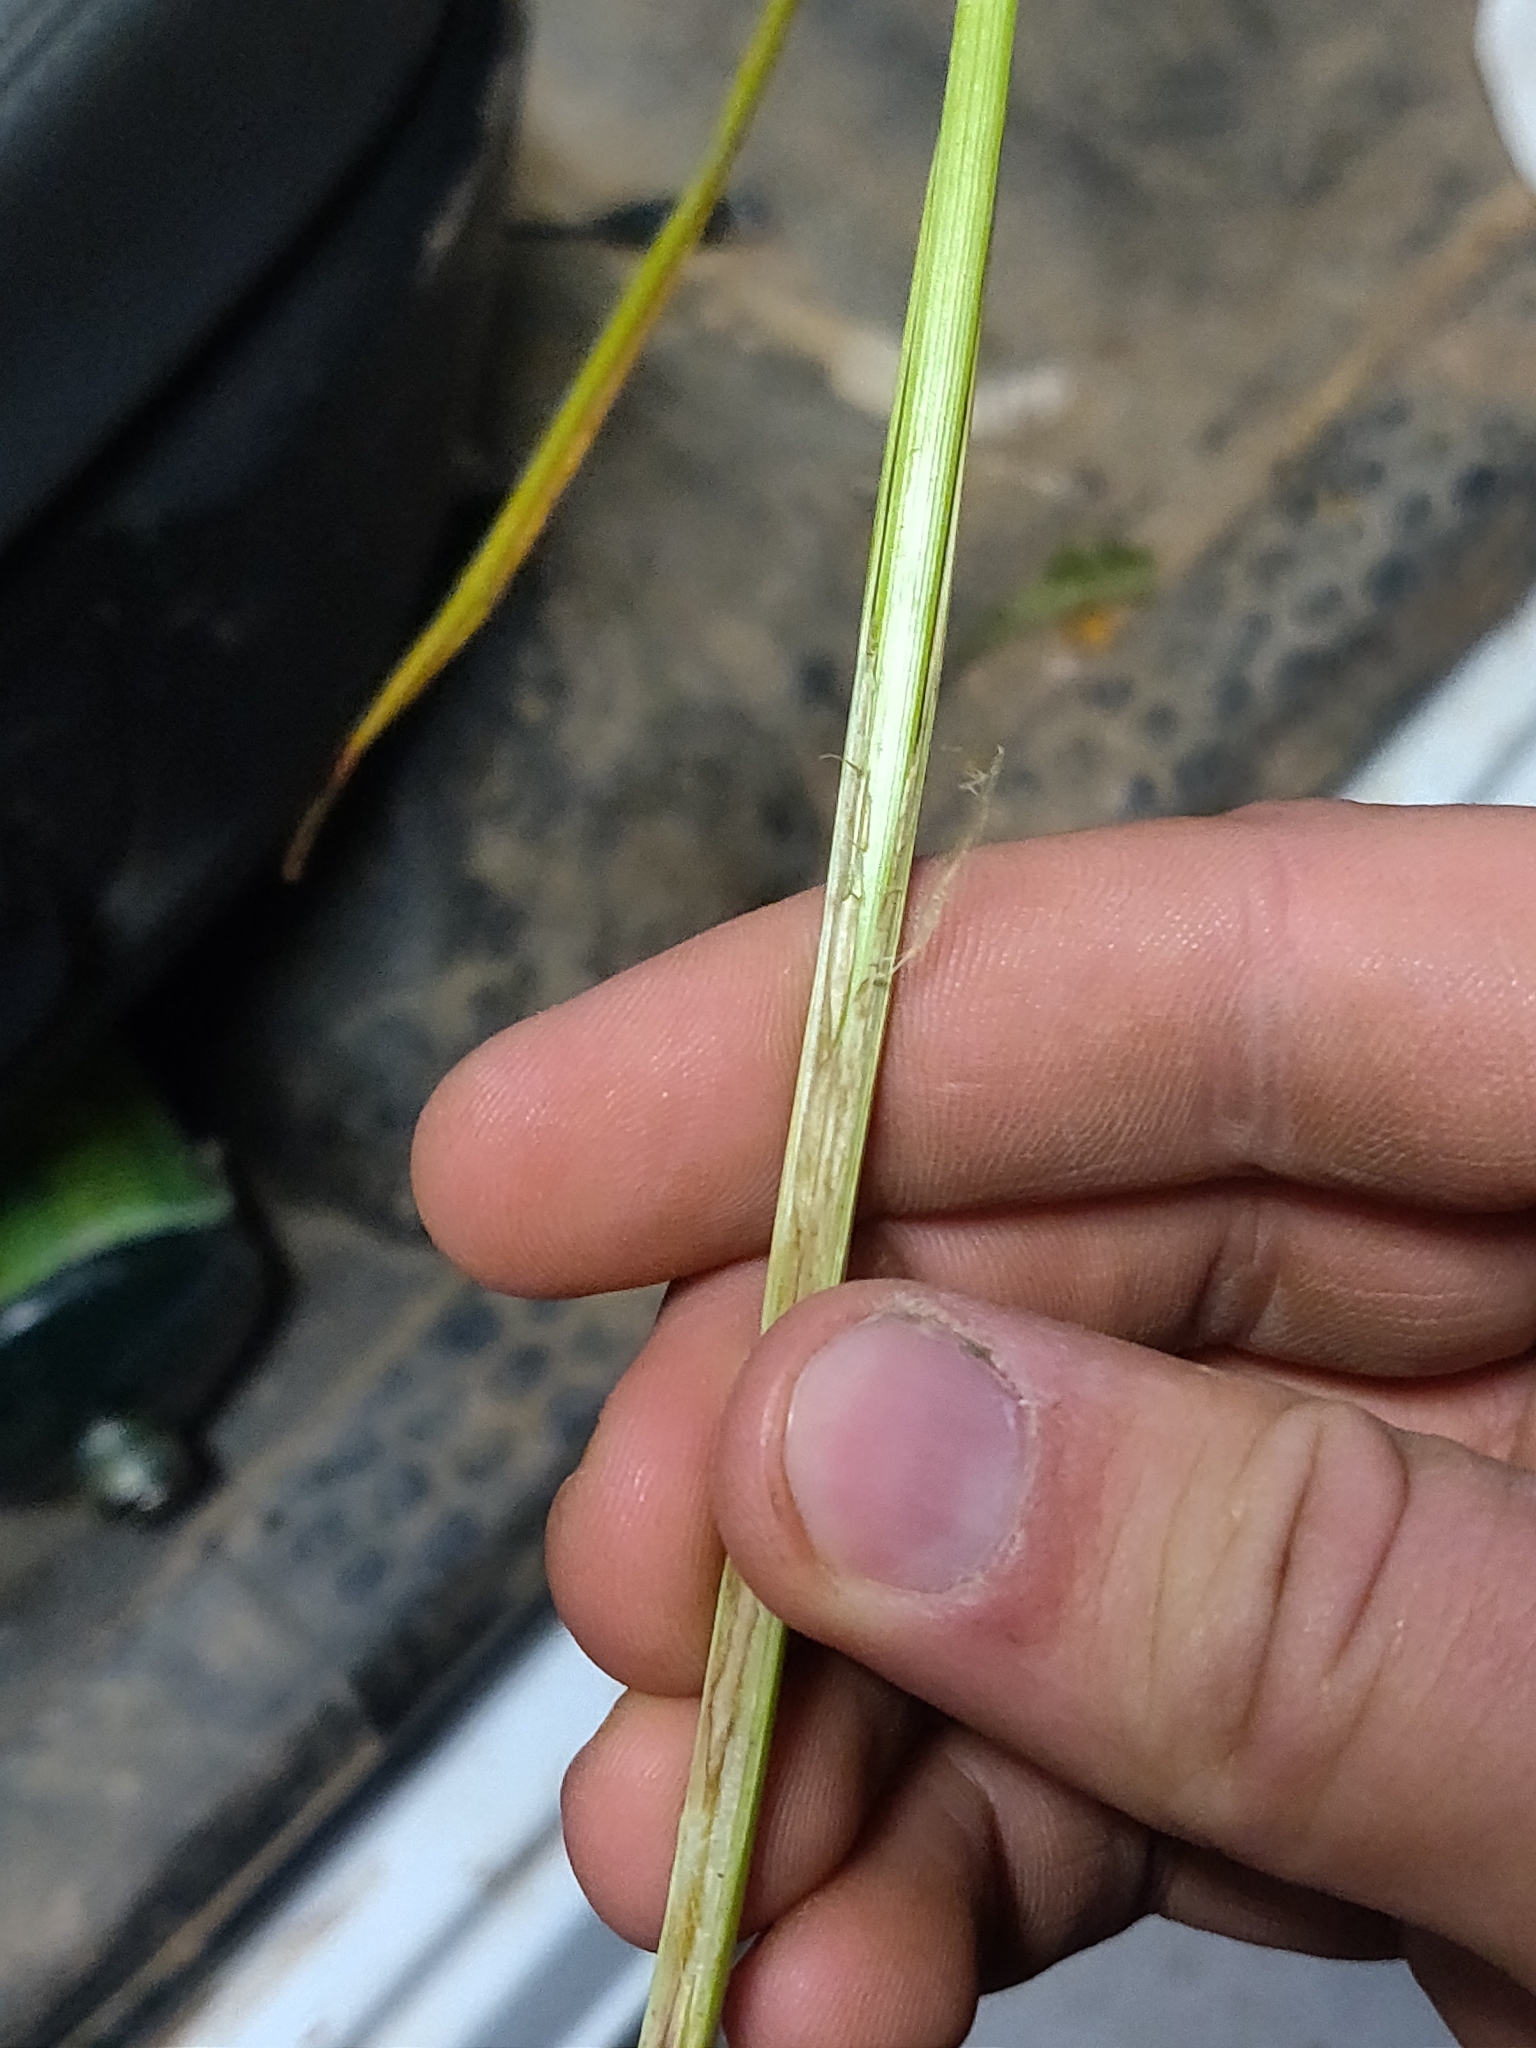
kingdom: Plantae
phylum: Tracheophyta
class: Liliopsida
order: Poales
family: Cyperaceae
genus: Carex
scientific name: Carex lupulina
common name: Hop sedge
